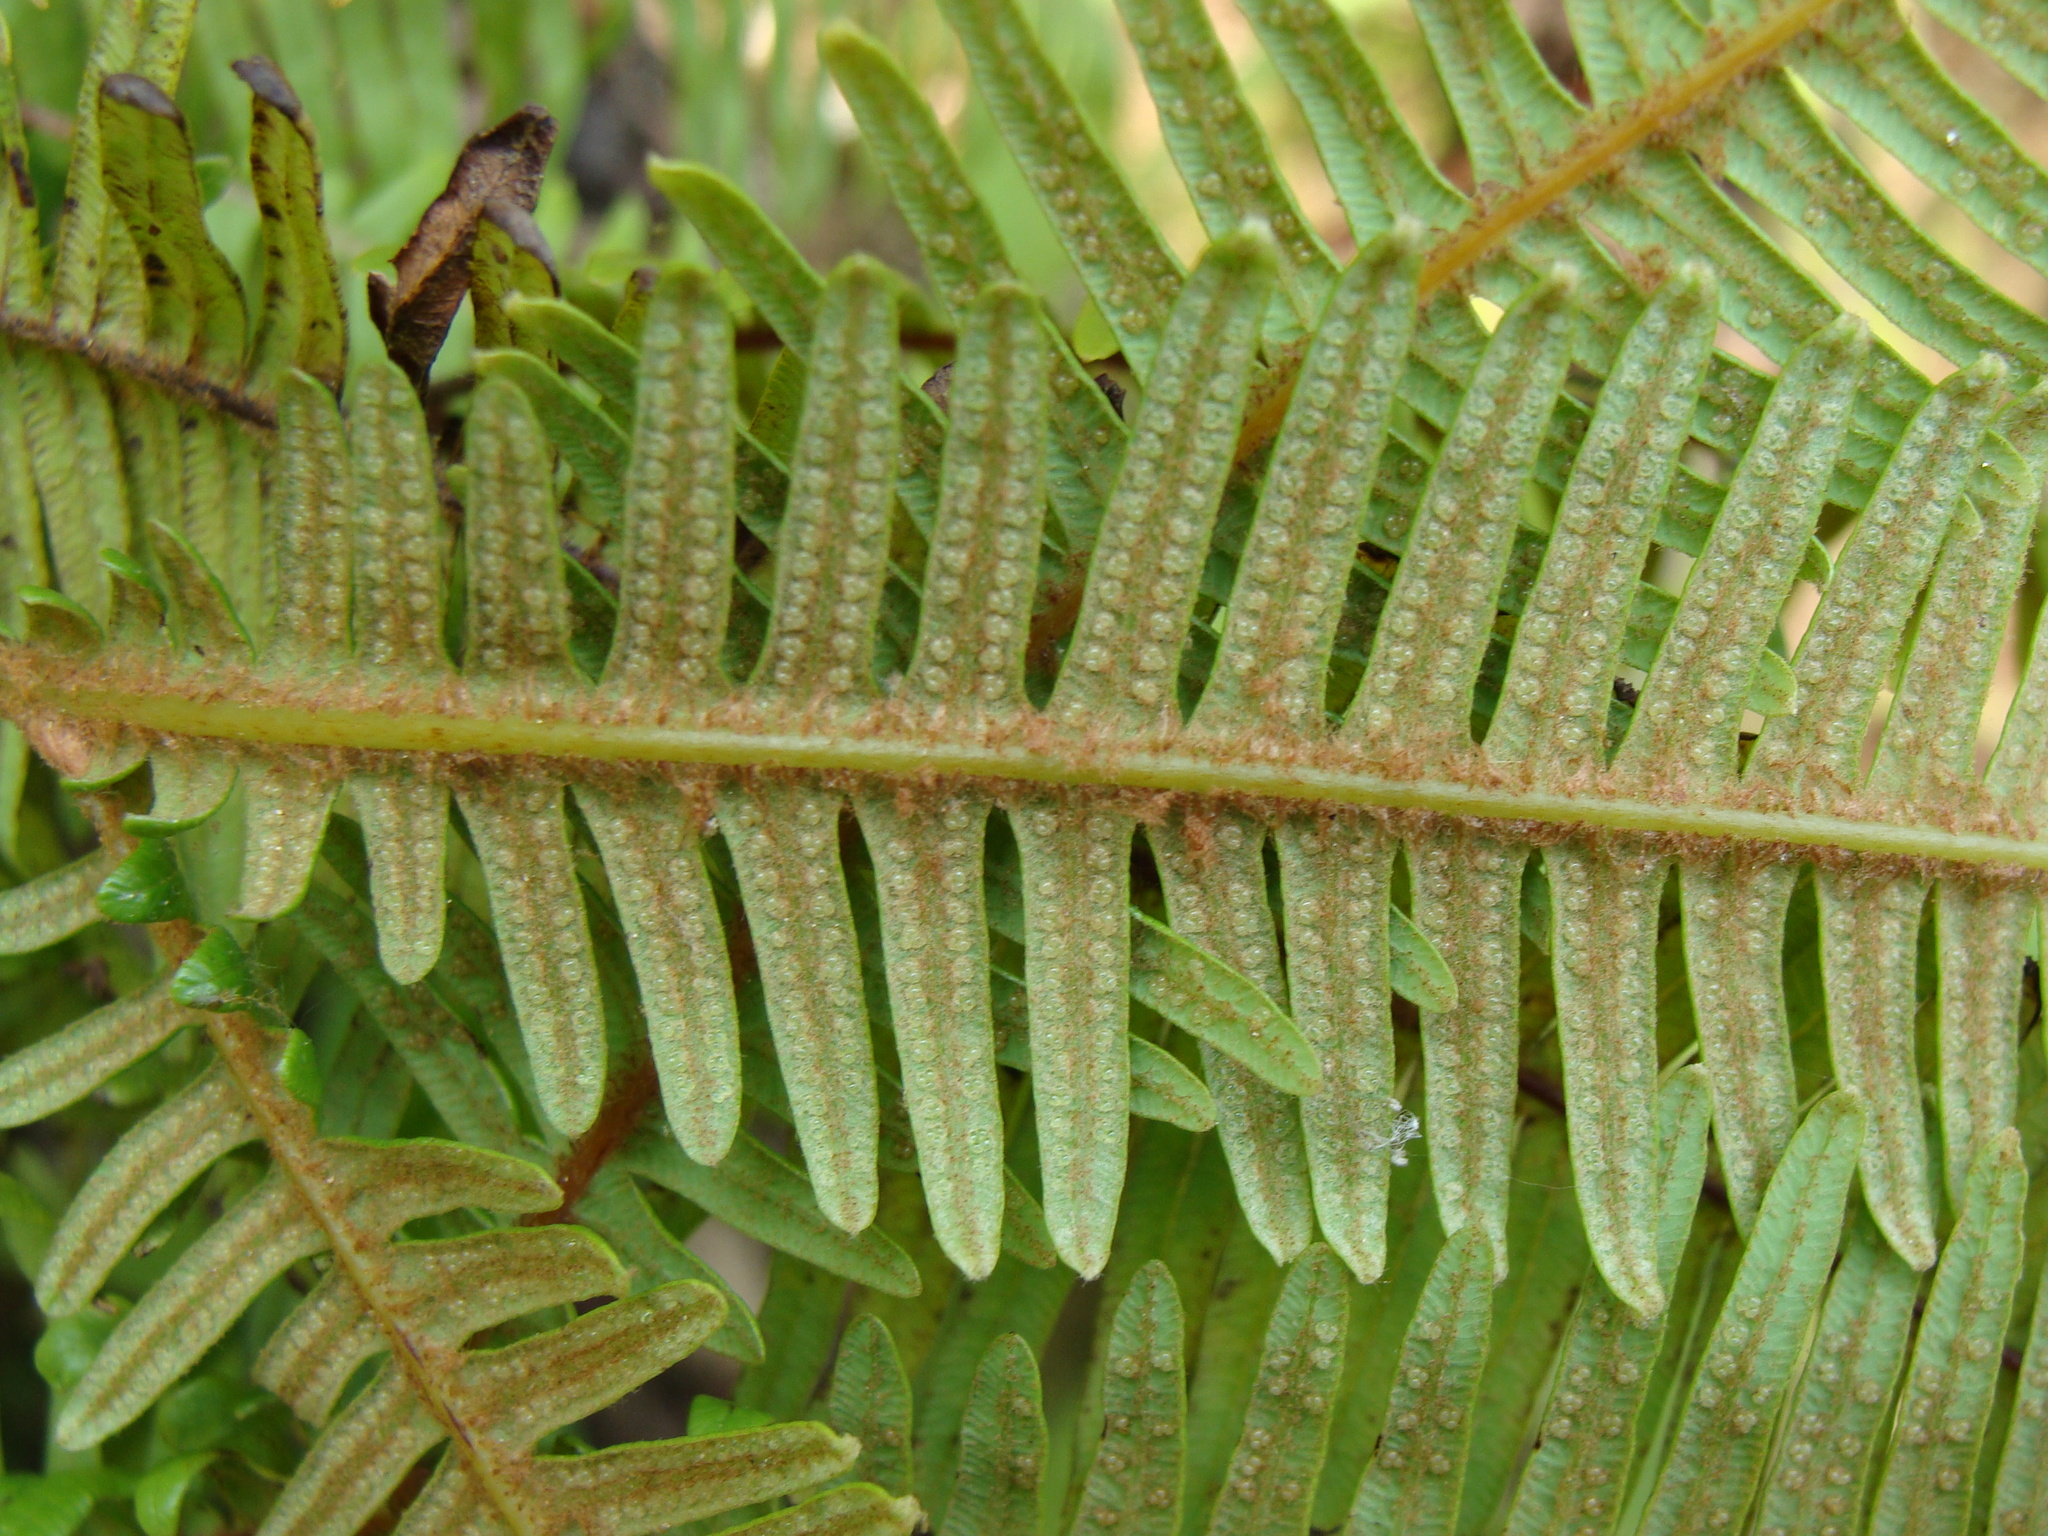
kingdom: Plantae
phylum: Tracheophyta
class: Polypodiopsida
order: Gleicheniales
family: Gleicheniaceae
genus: Sticherus
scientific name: Sticherus fulvus
